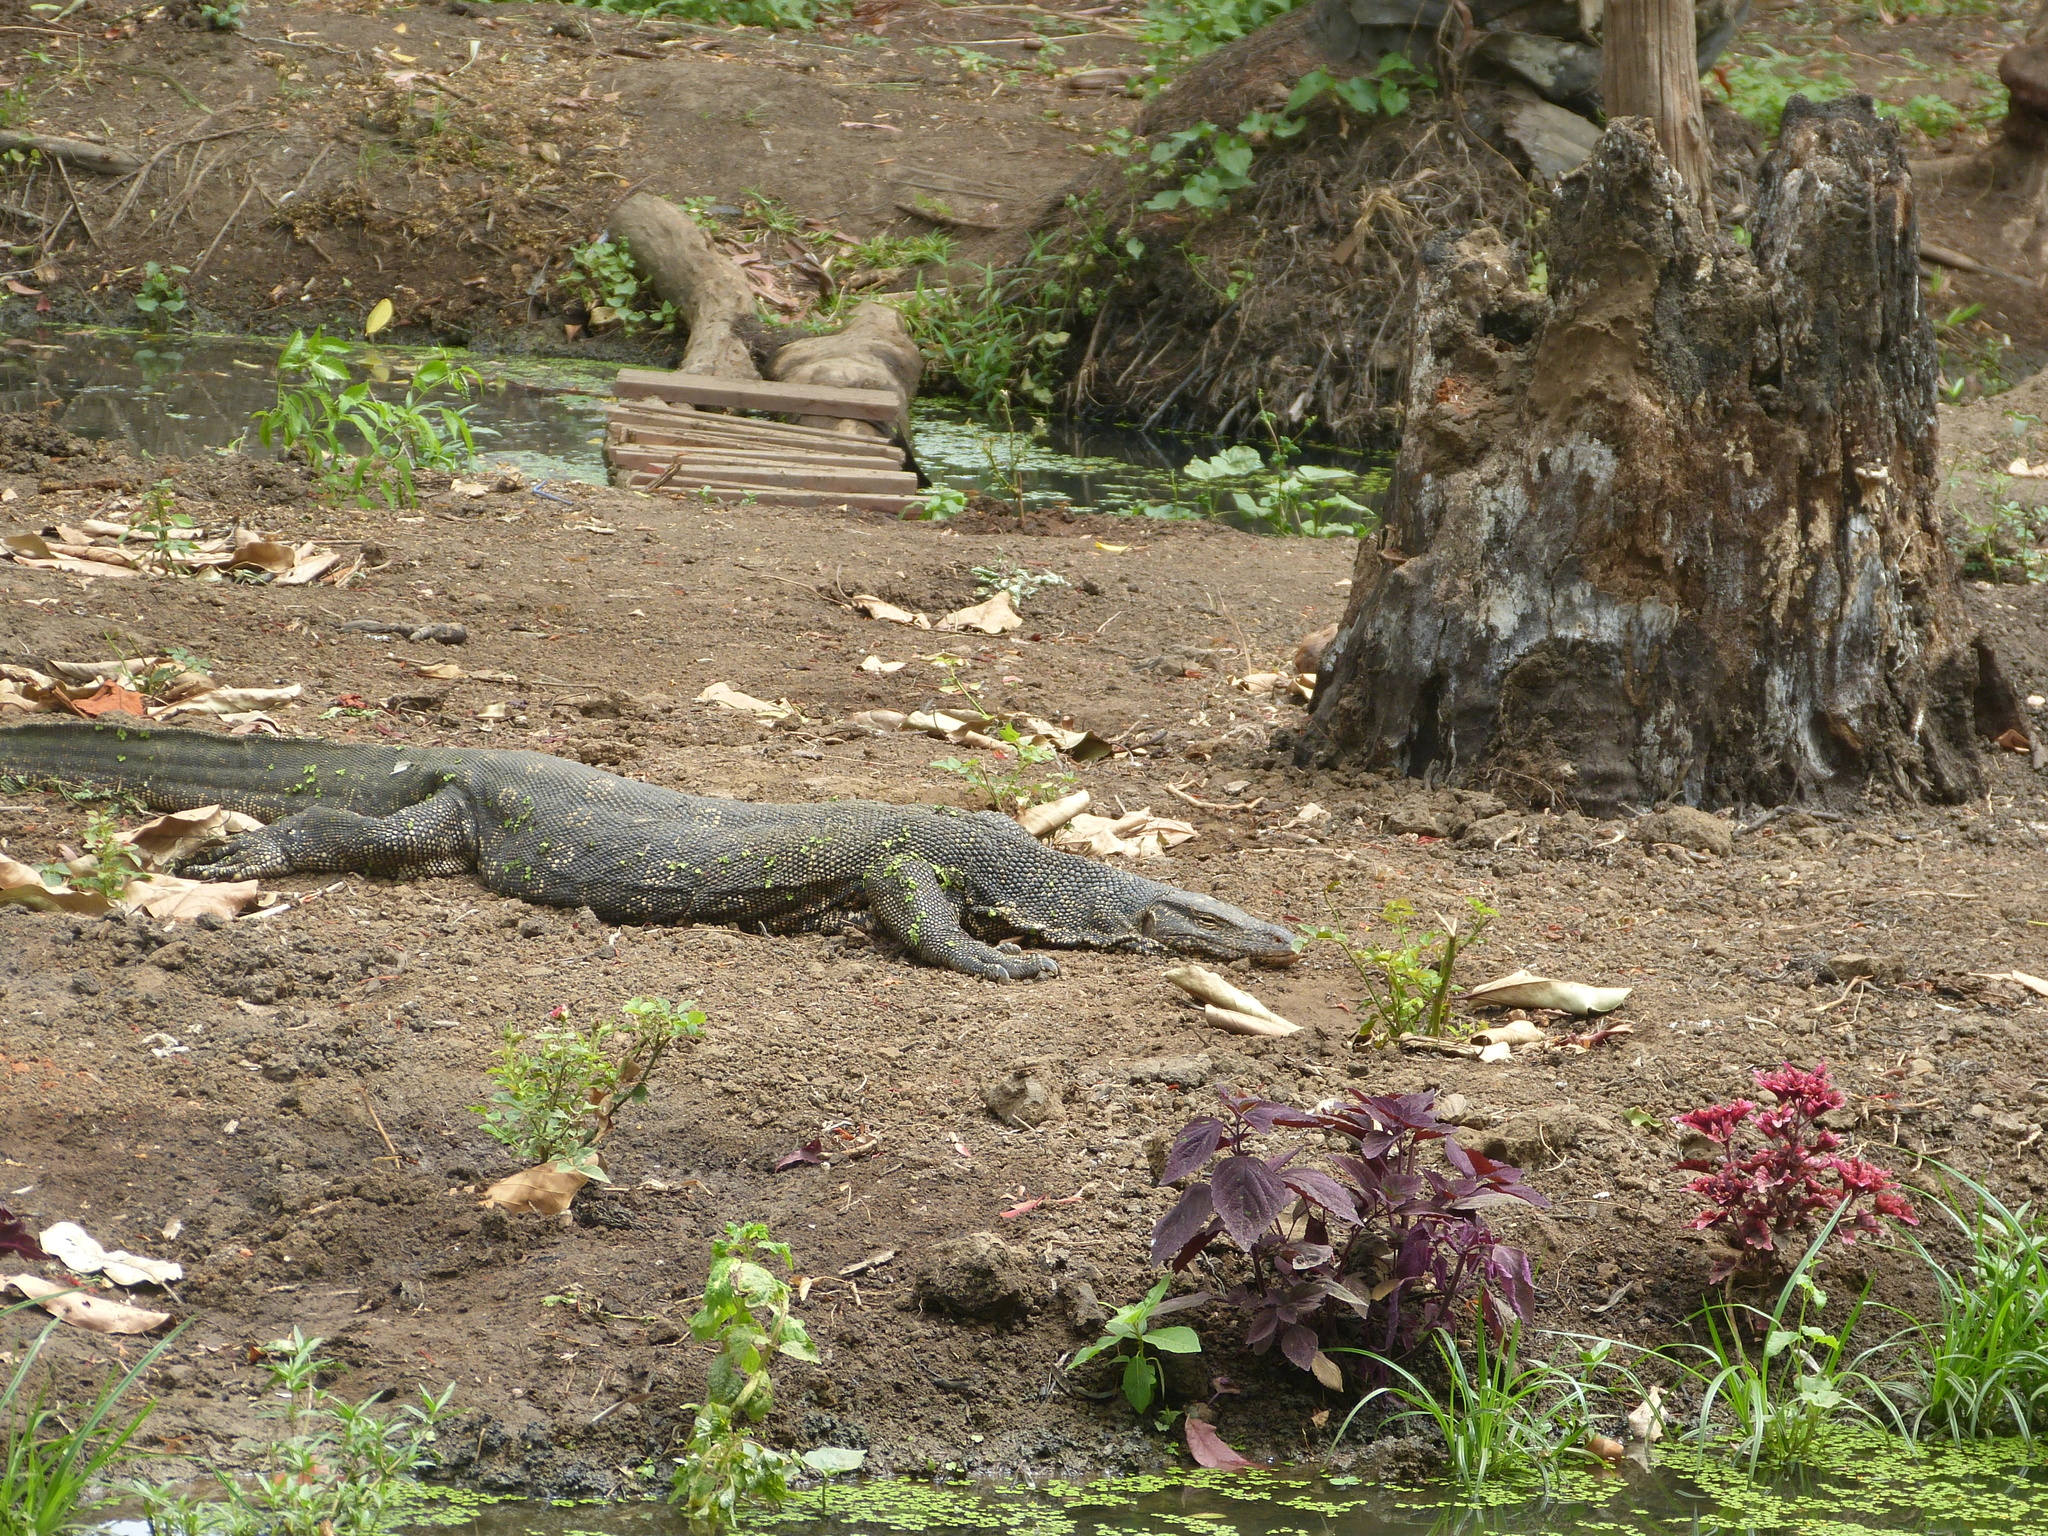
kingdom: Animalia
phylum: Chordata
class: Squamata
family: Varanidae
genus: Varanus
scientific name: Varanus salvator
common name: Common water monitor
